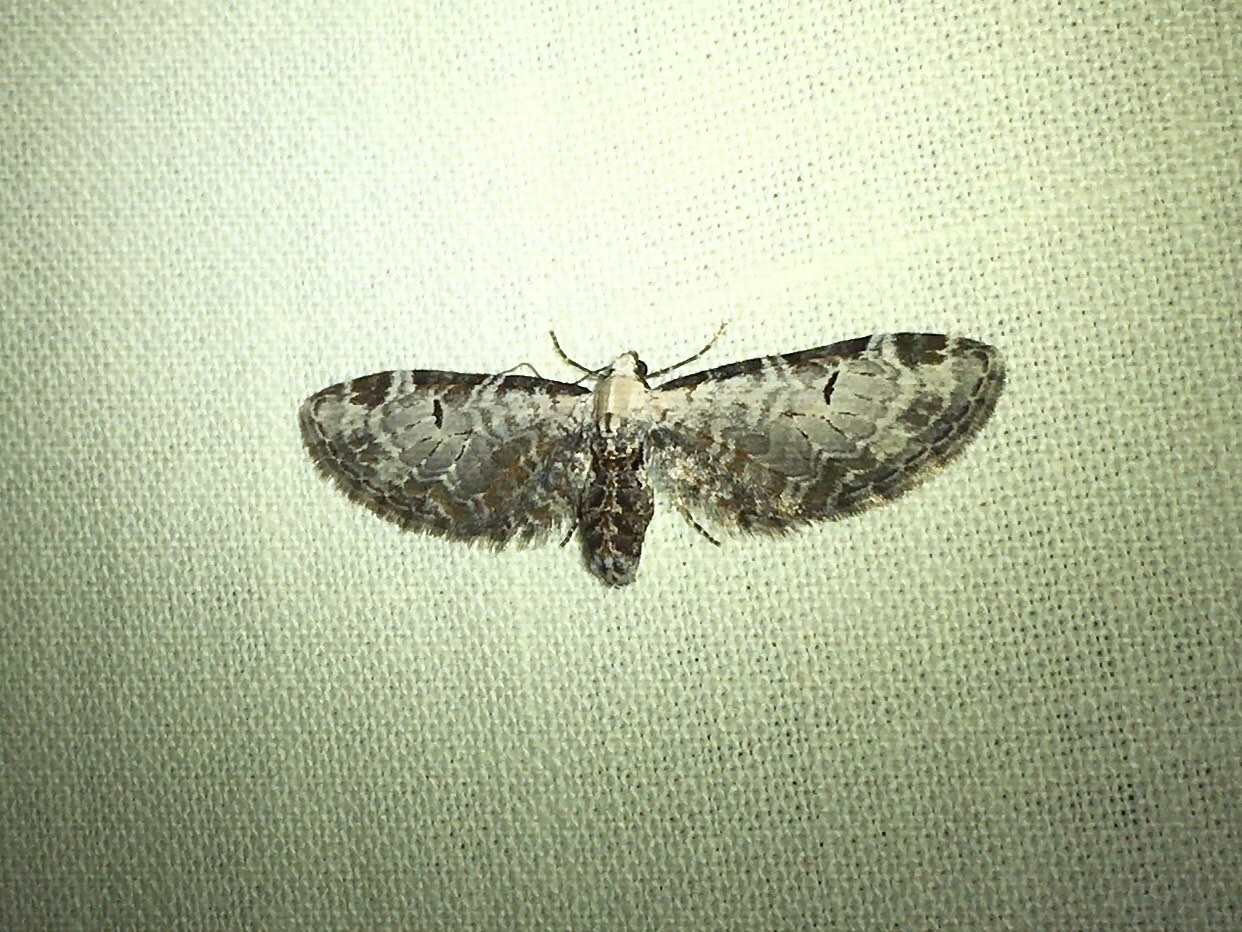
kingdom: Animalia
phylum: Arthropoda
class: Insecta
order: Lepidoptera
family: Geometridae
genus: Eupithecia
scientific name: Eupithecia ravocostaliata
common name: Great varigated pug
